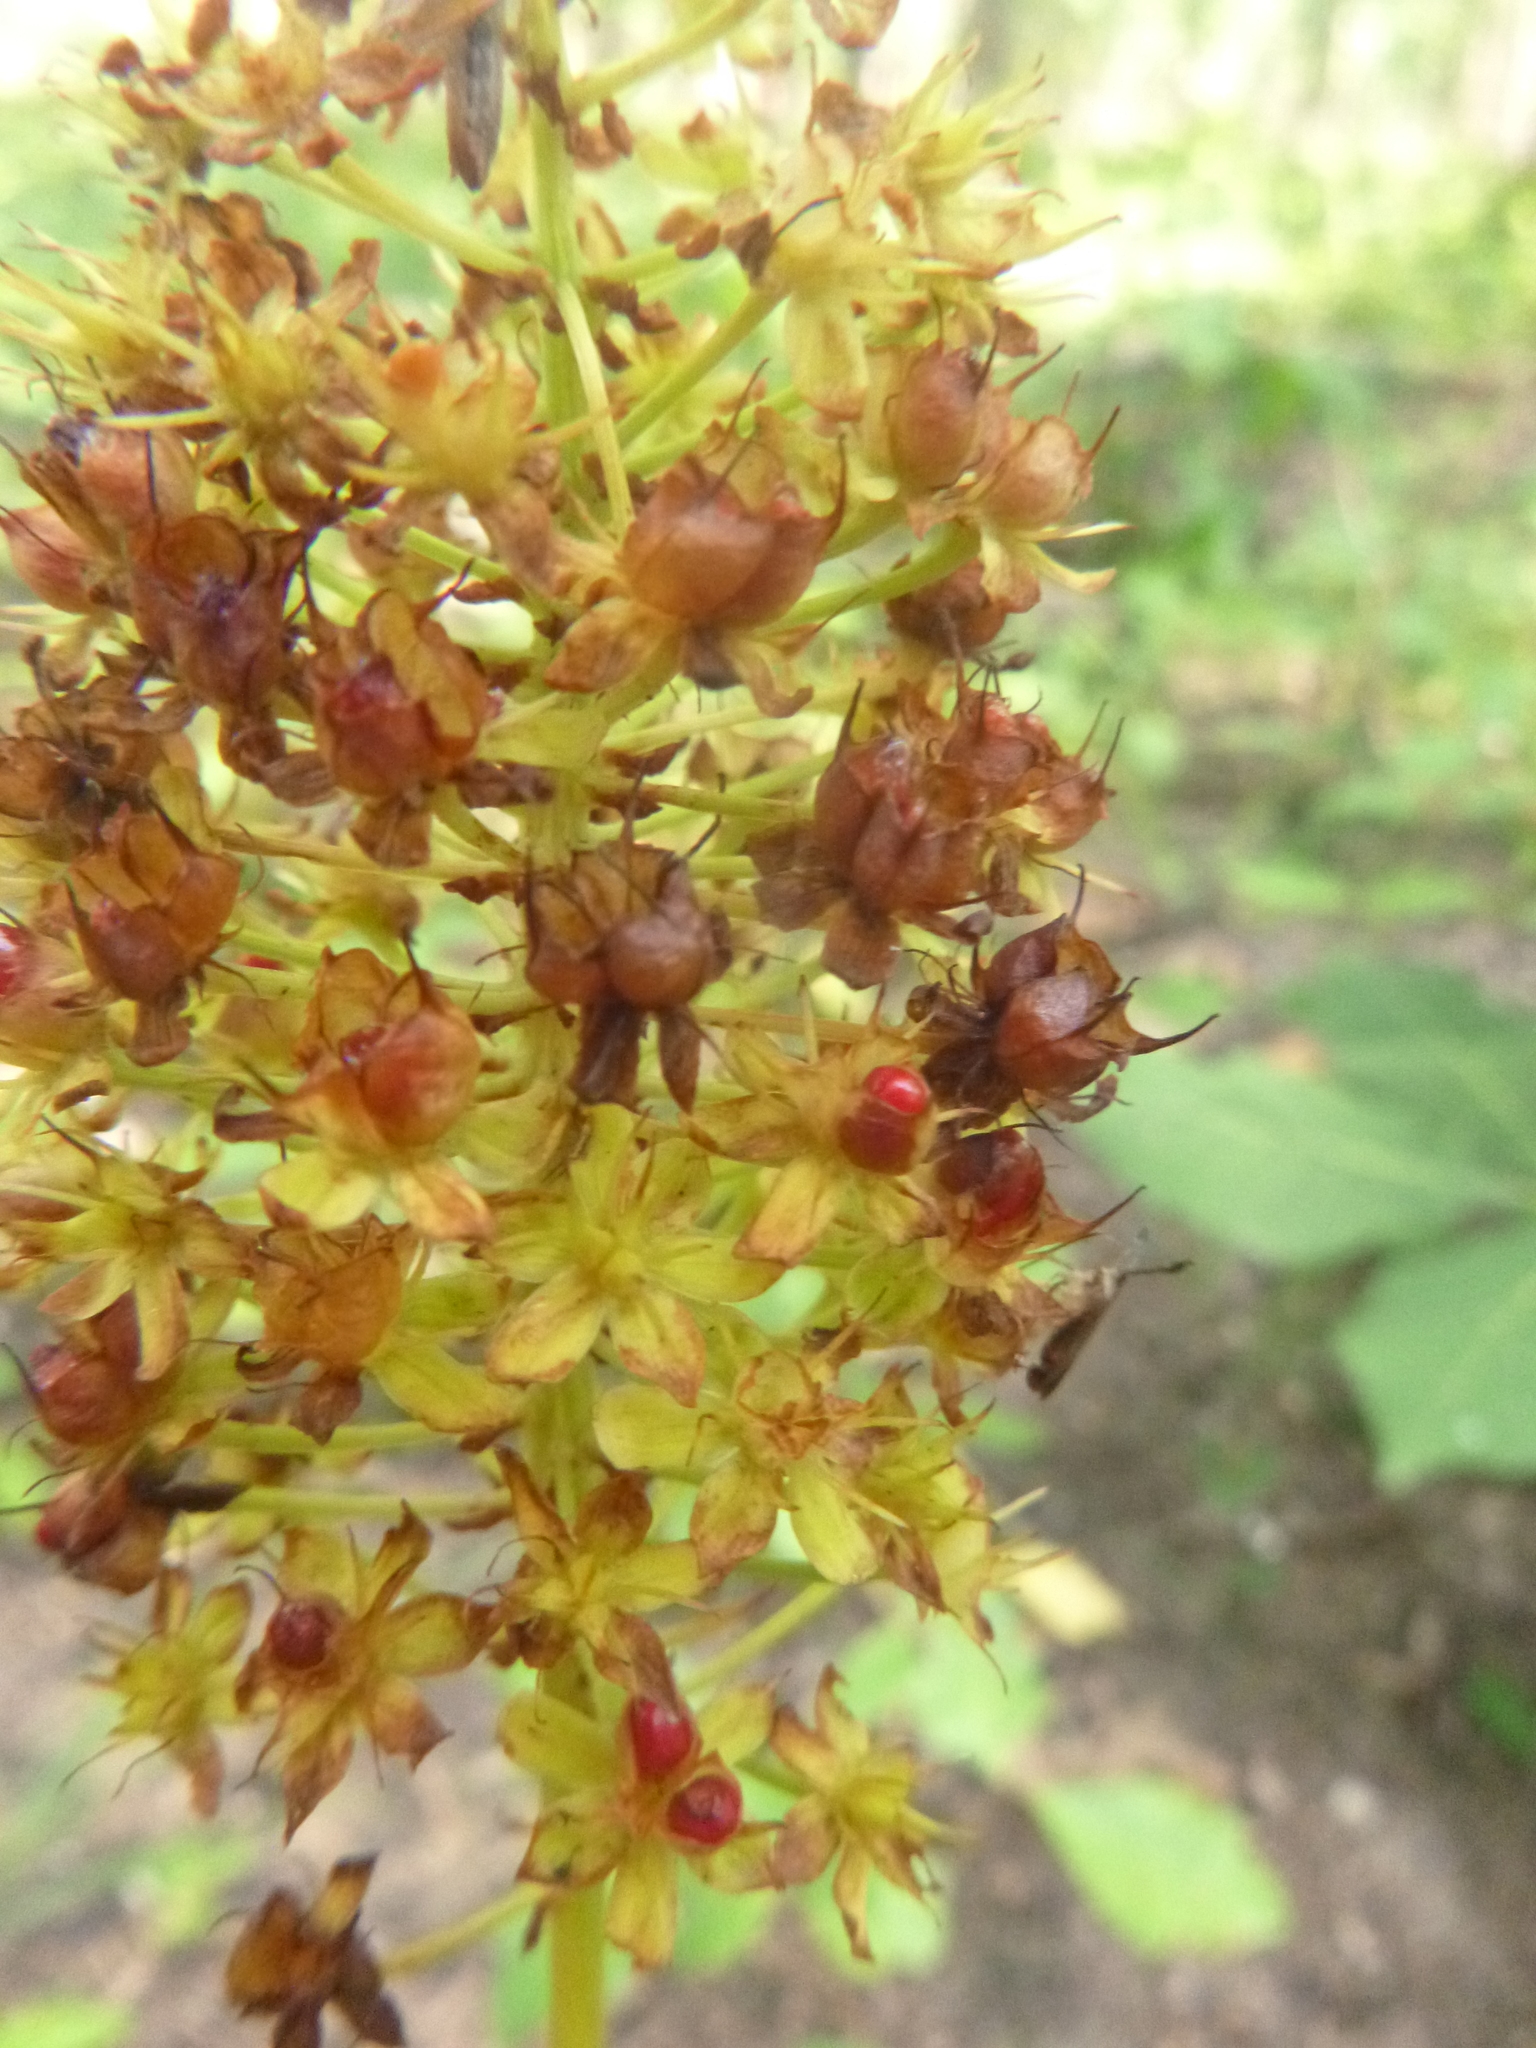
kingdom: Plantae
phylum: Tracheophyta
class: Liliopsida
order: Liliales
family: Melanthiaceae
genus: Amianthium
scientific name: Amianthium muscitoxicum
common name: Fly-poison
